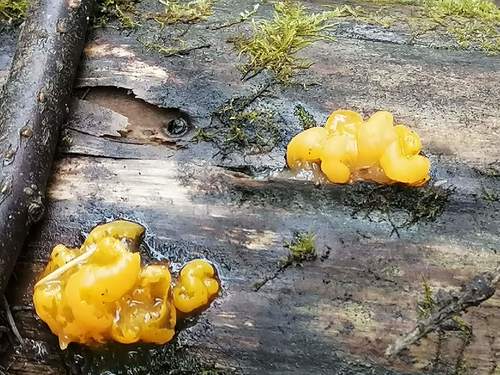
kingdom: Fungi
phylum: Basidiomycota
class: Dacrymycetes
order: Dacrymycetales
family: Dacrymycetaceae
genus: Dacrymyces
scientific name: Dacrymyces chrysospermus
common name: Orange jelly spot
